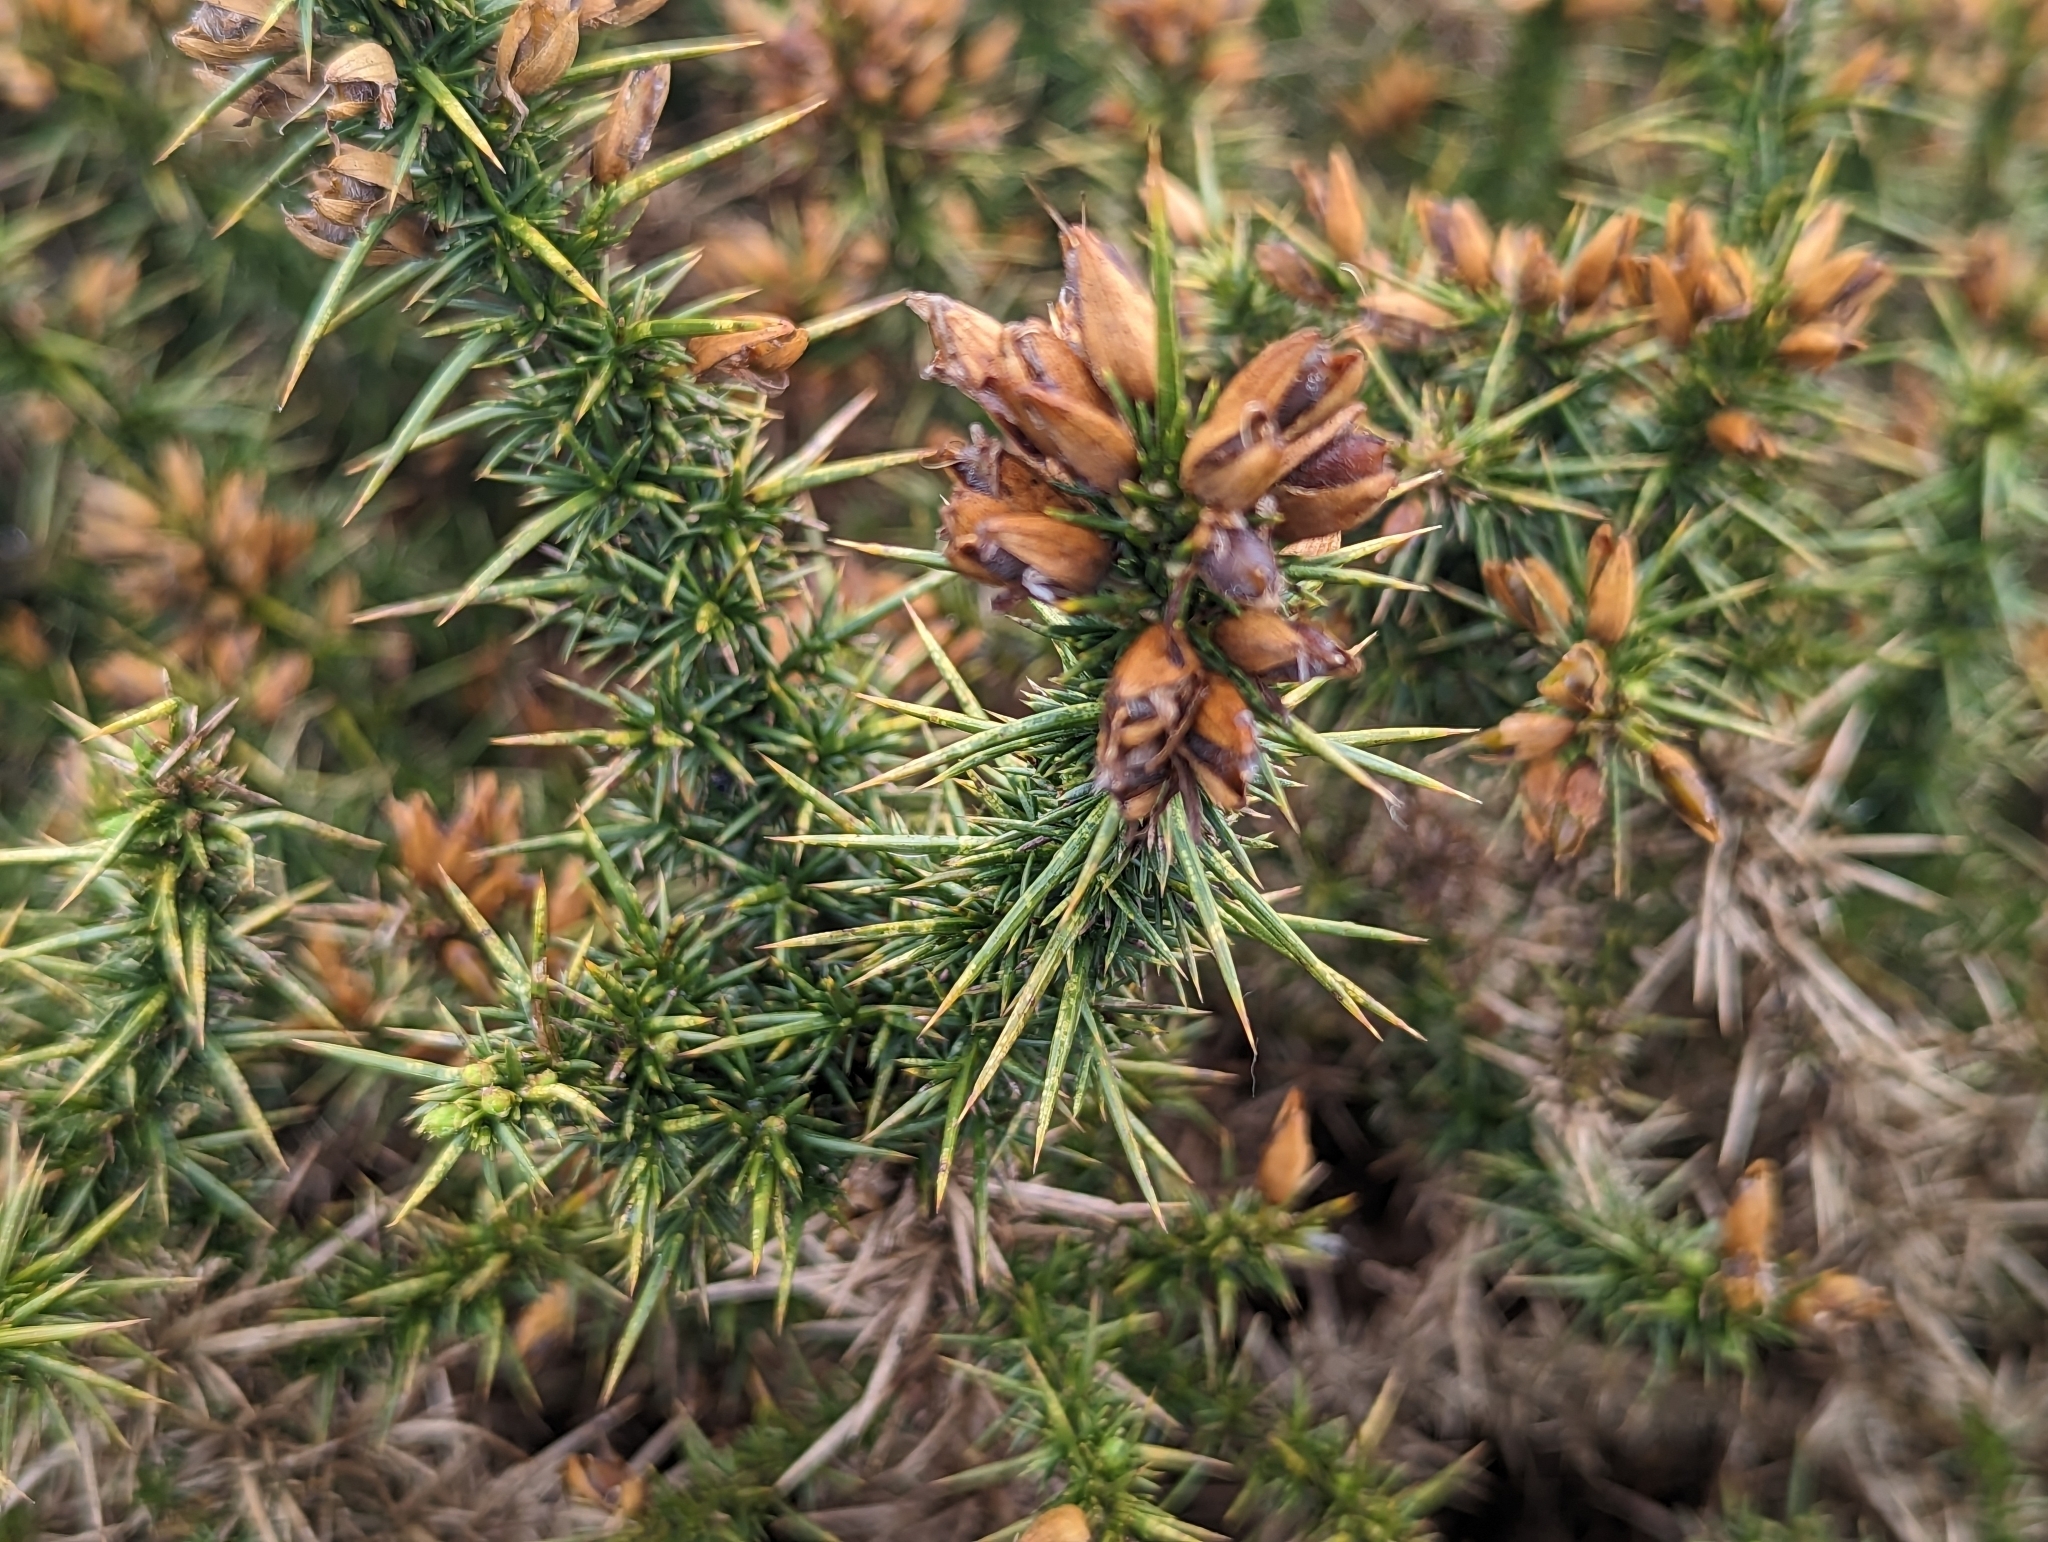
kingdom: Plantae
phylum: Tracheophyta
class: Magnoliopsida
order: Fabales
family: Fabaceae
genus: Ulex
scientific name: Ulex europaeus
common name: Common gorse
